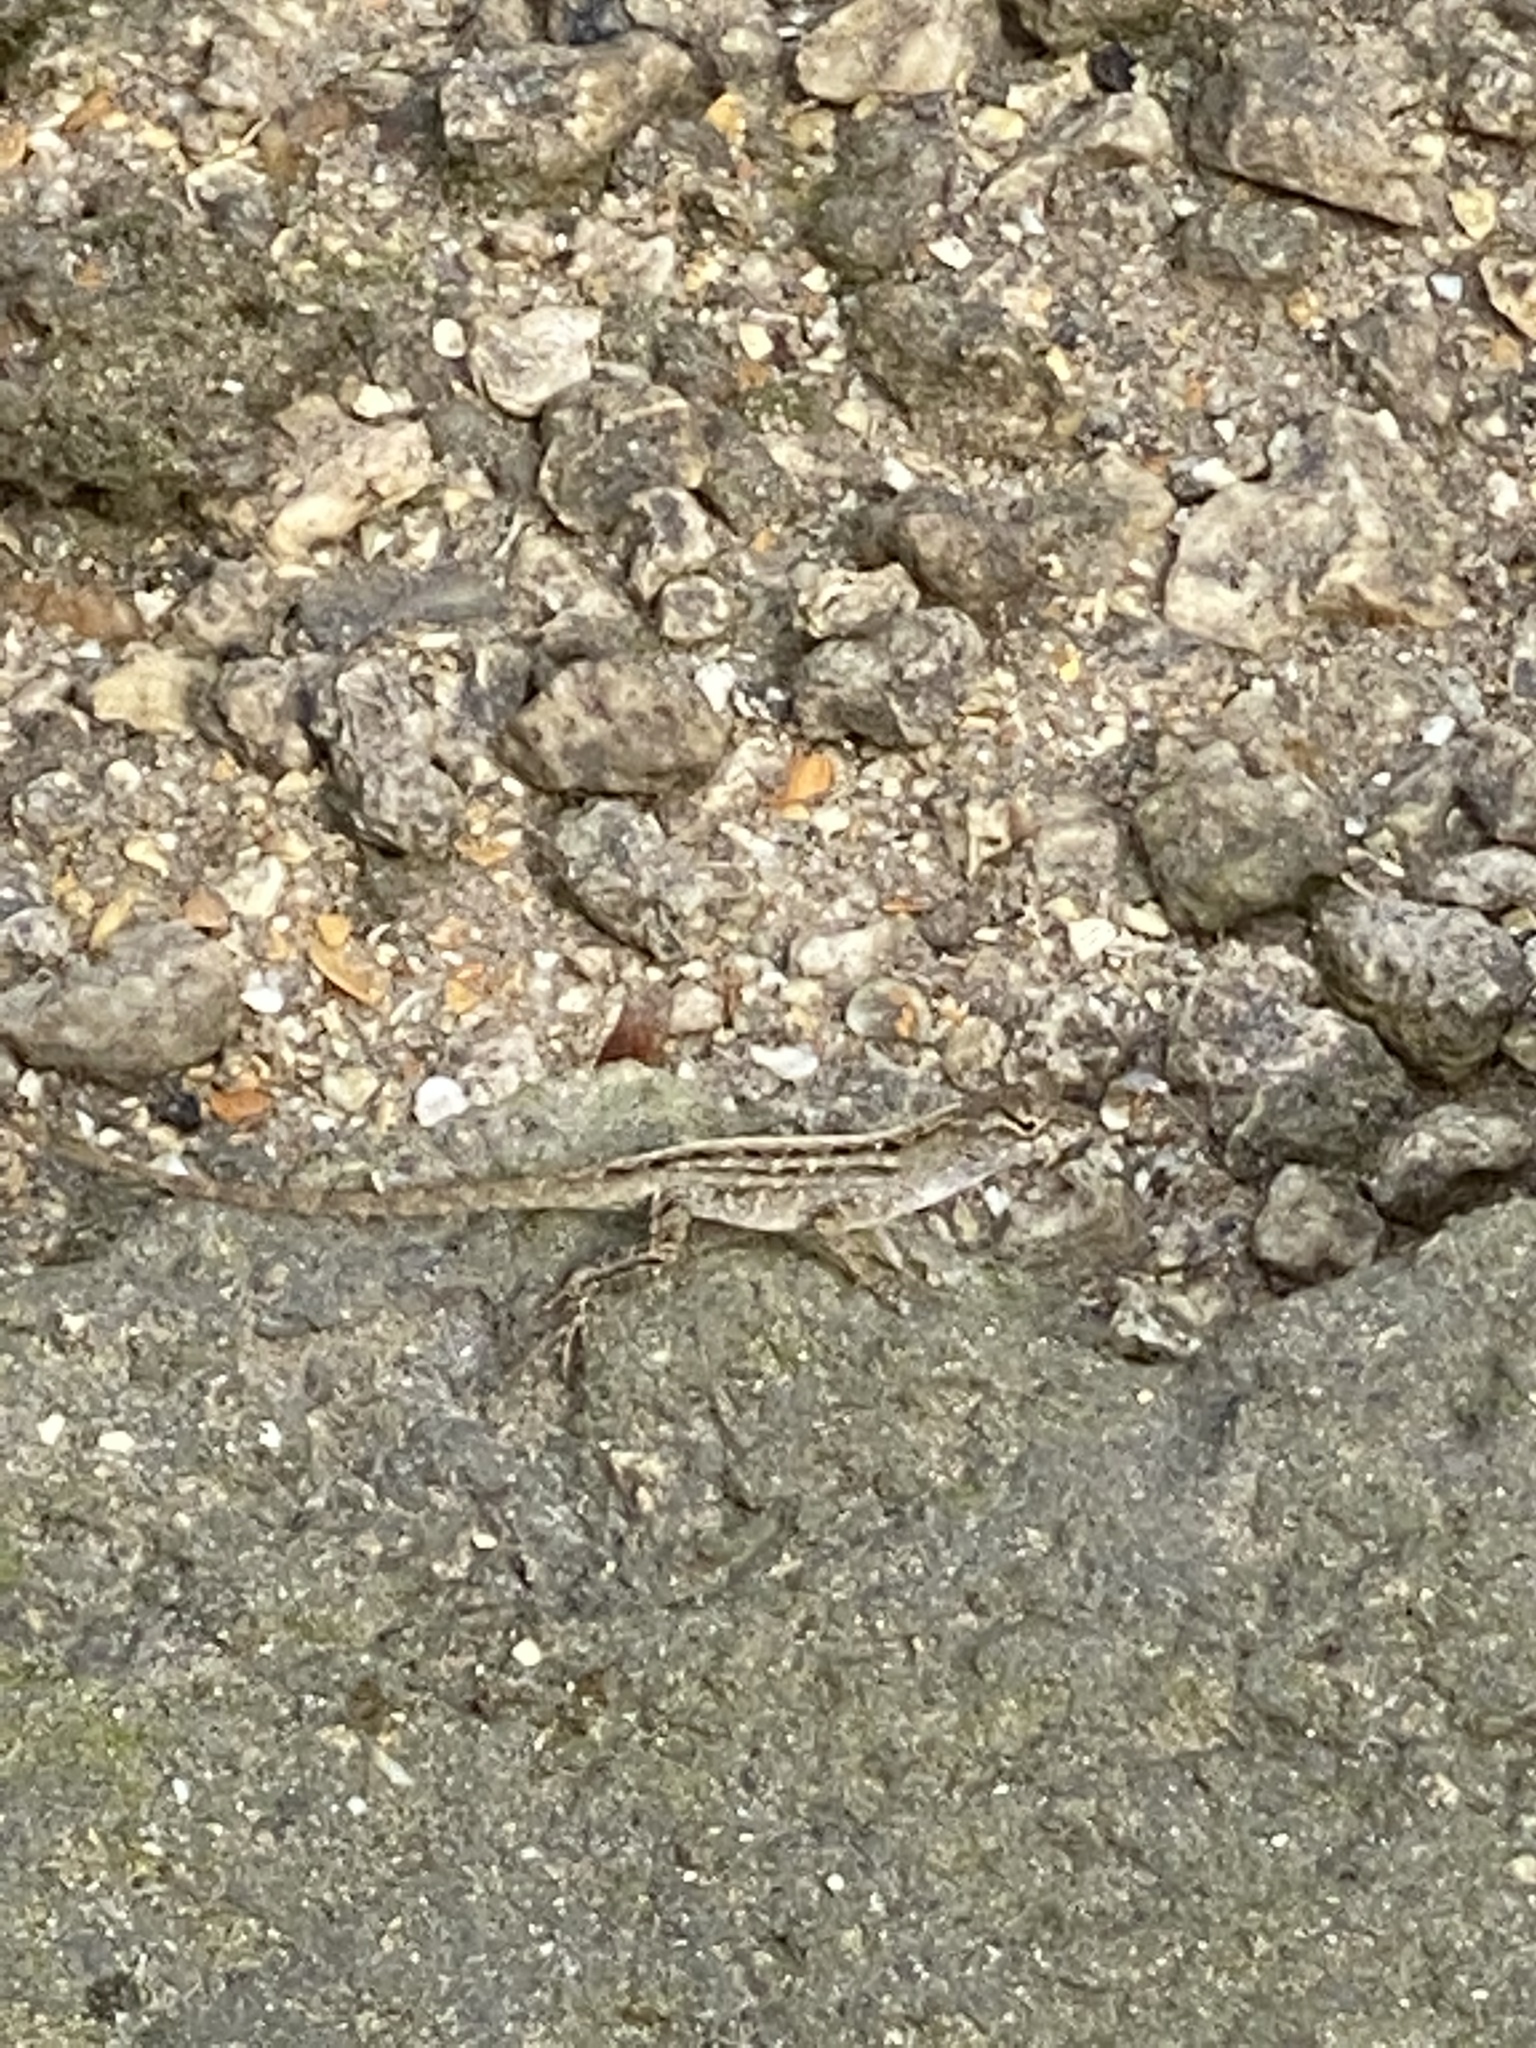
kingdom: Animalia
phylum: Chordata
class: Squamata
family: Dactyloidae
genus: Anolis
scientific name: Anolis sagrei
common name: Brown anole
